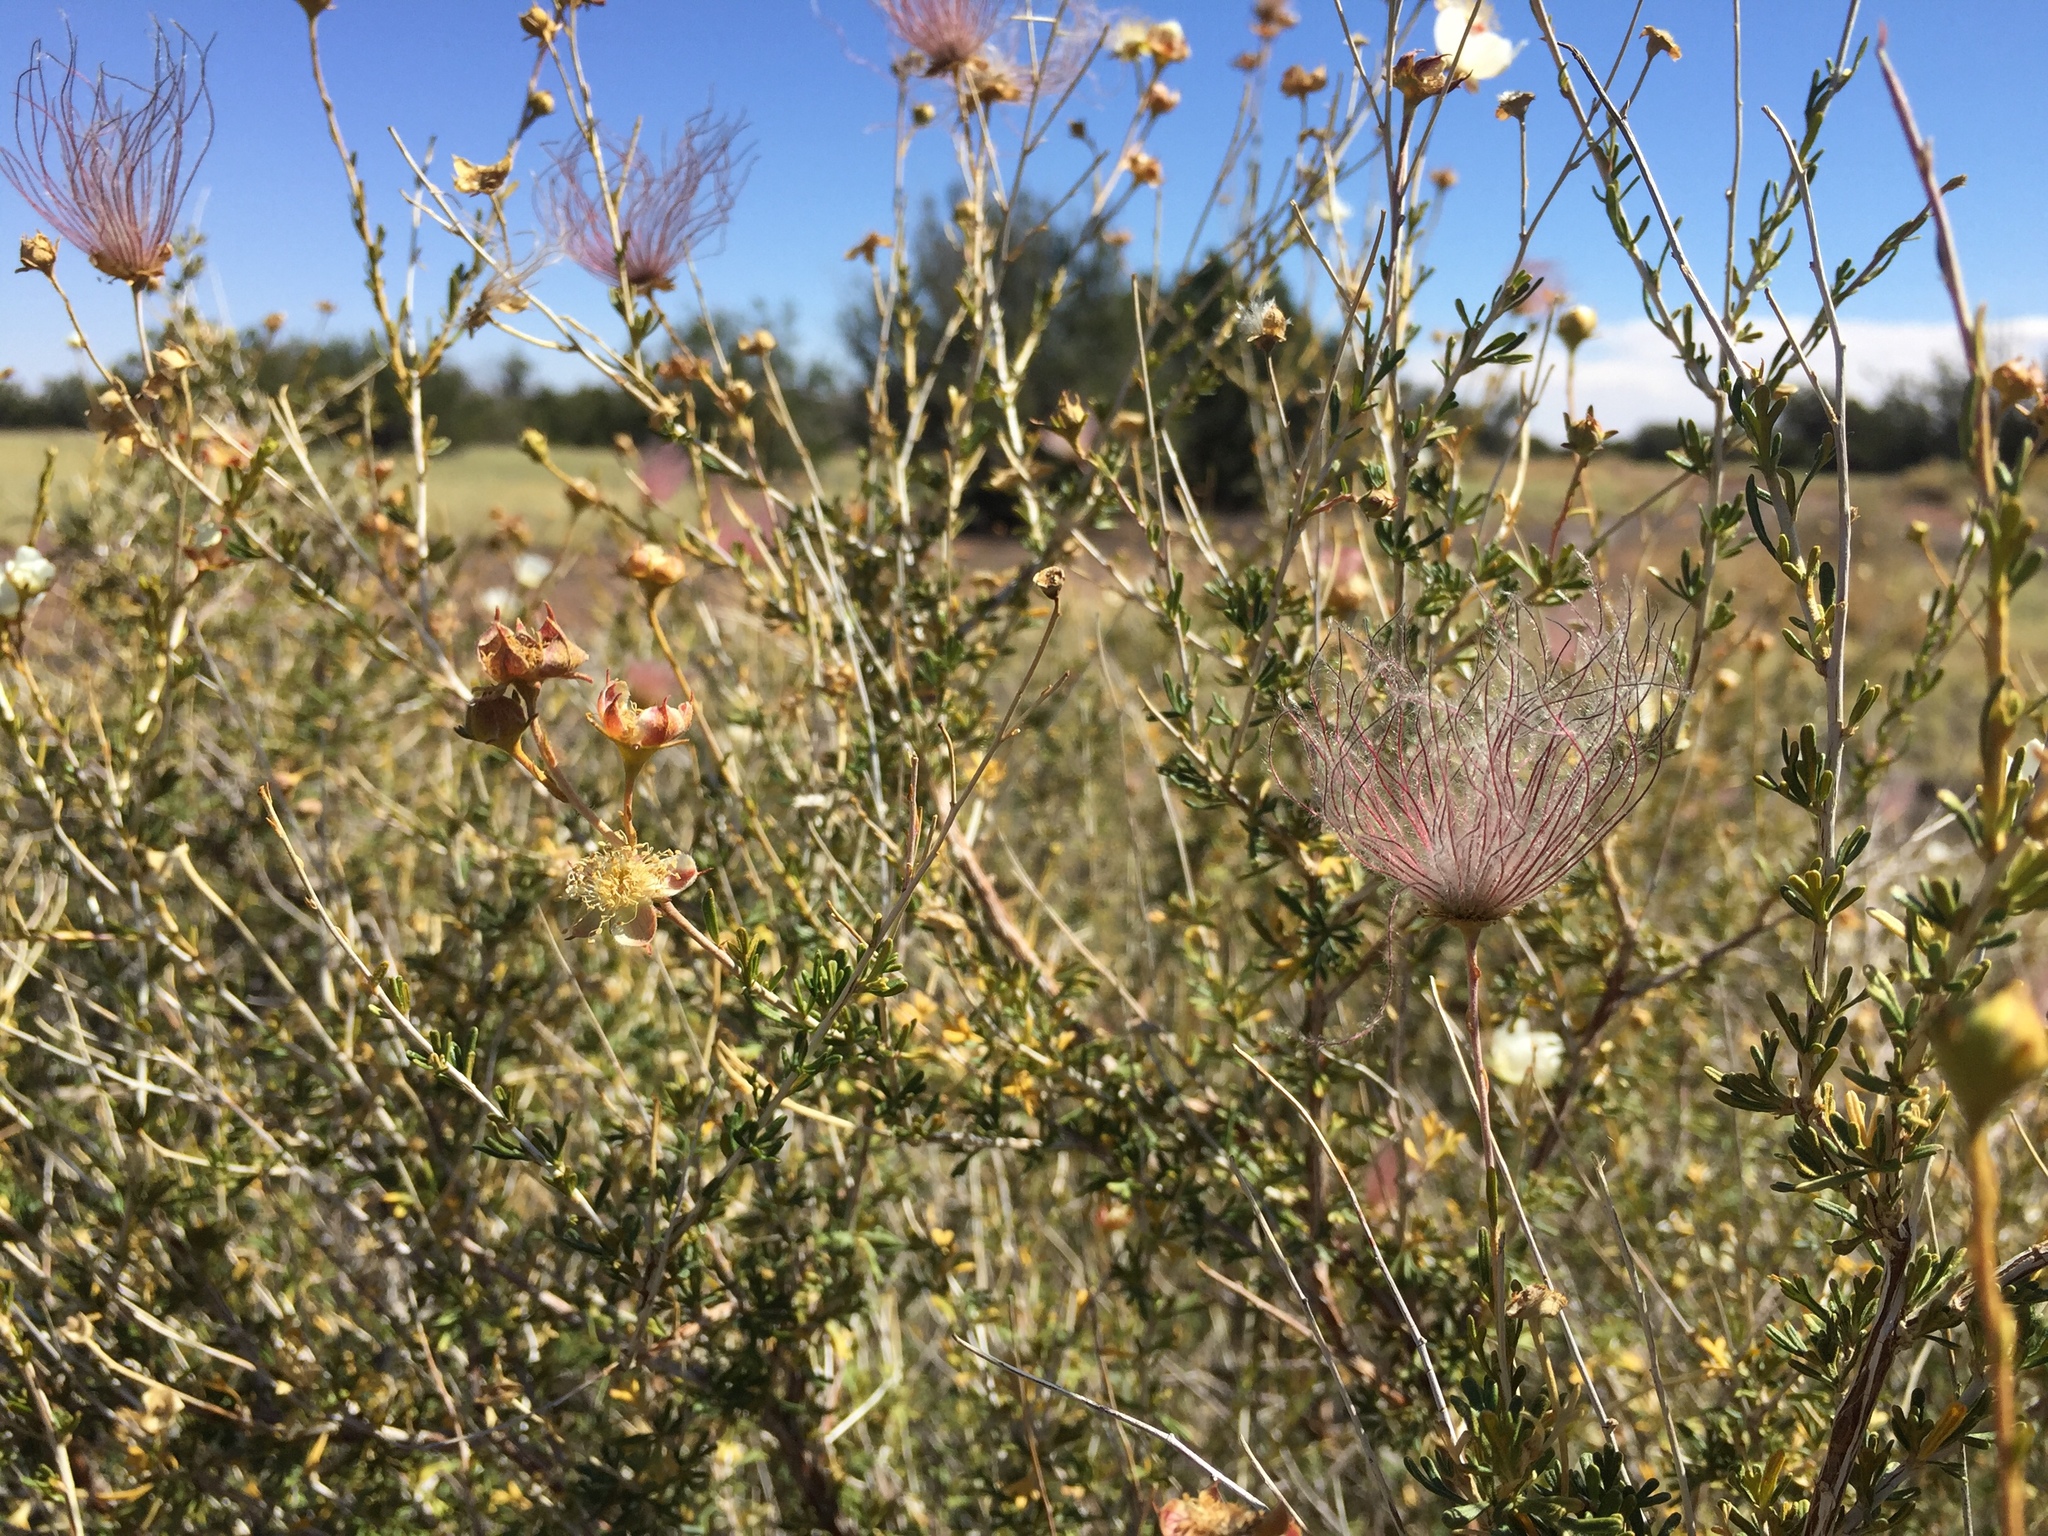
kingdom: Plantae
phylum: Tracheophyta
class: Magnoliopsida
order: Rosales
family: Rosaceae
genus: Fallugia
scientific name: Fallugia paradoxa
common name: Apache-plume
